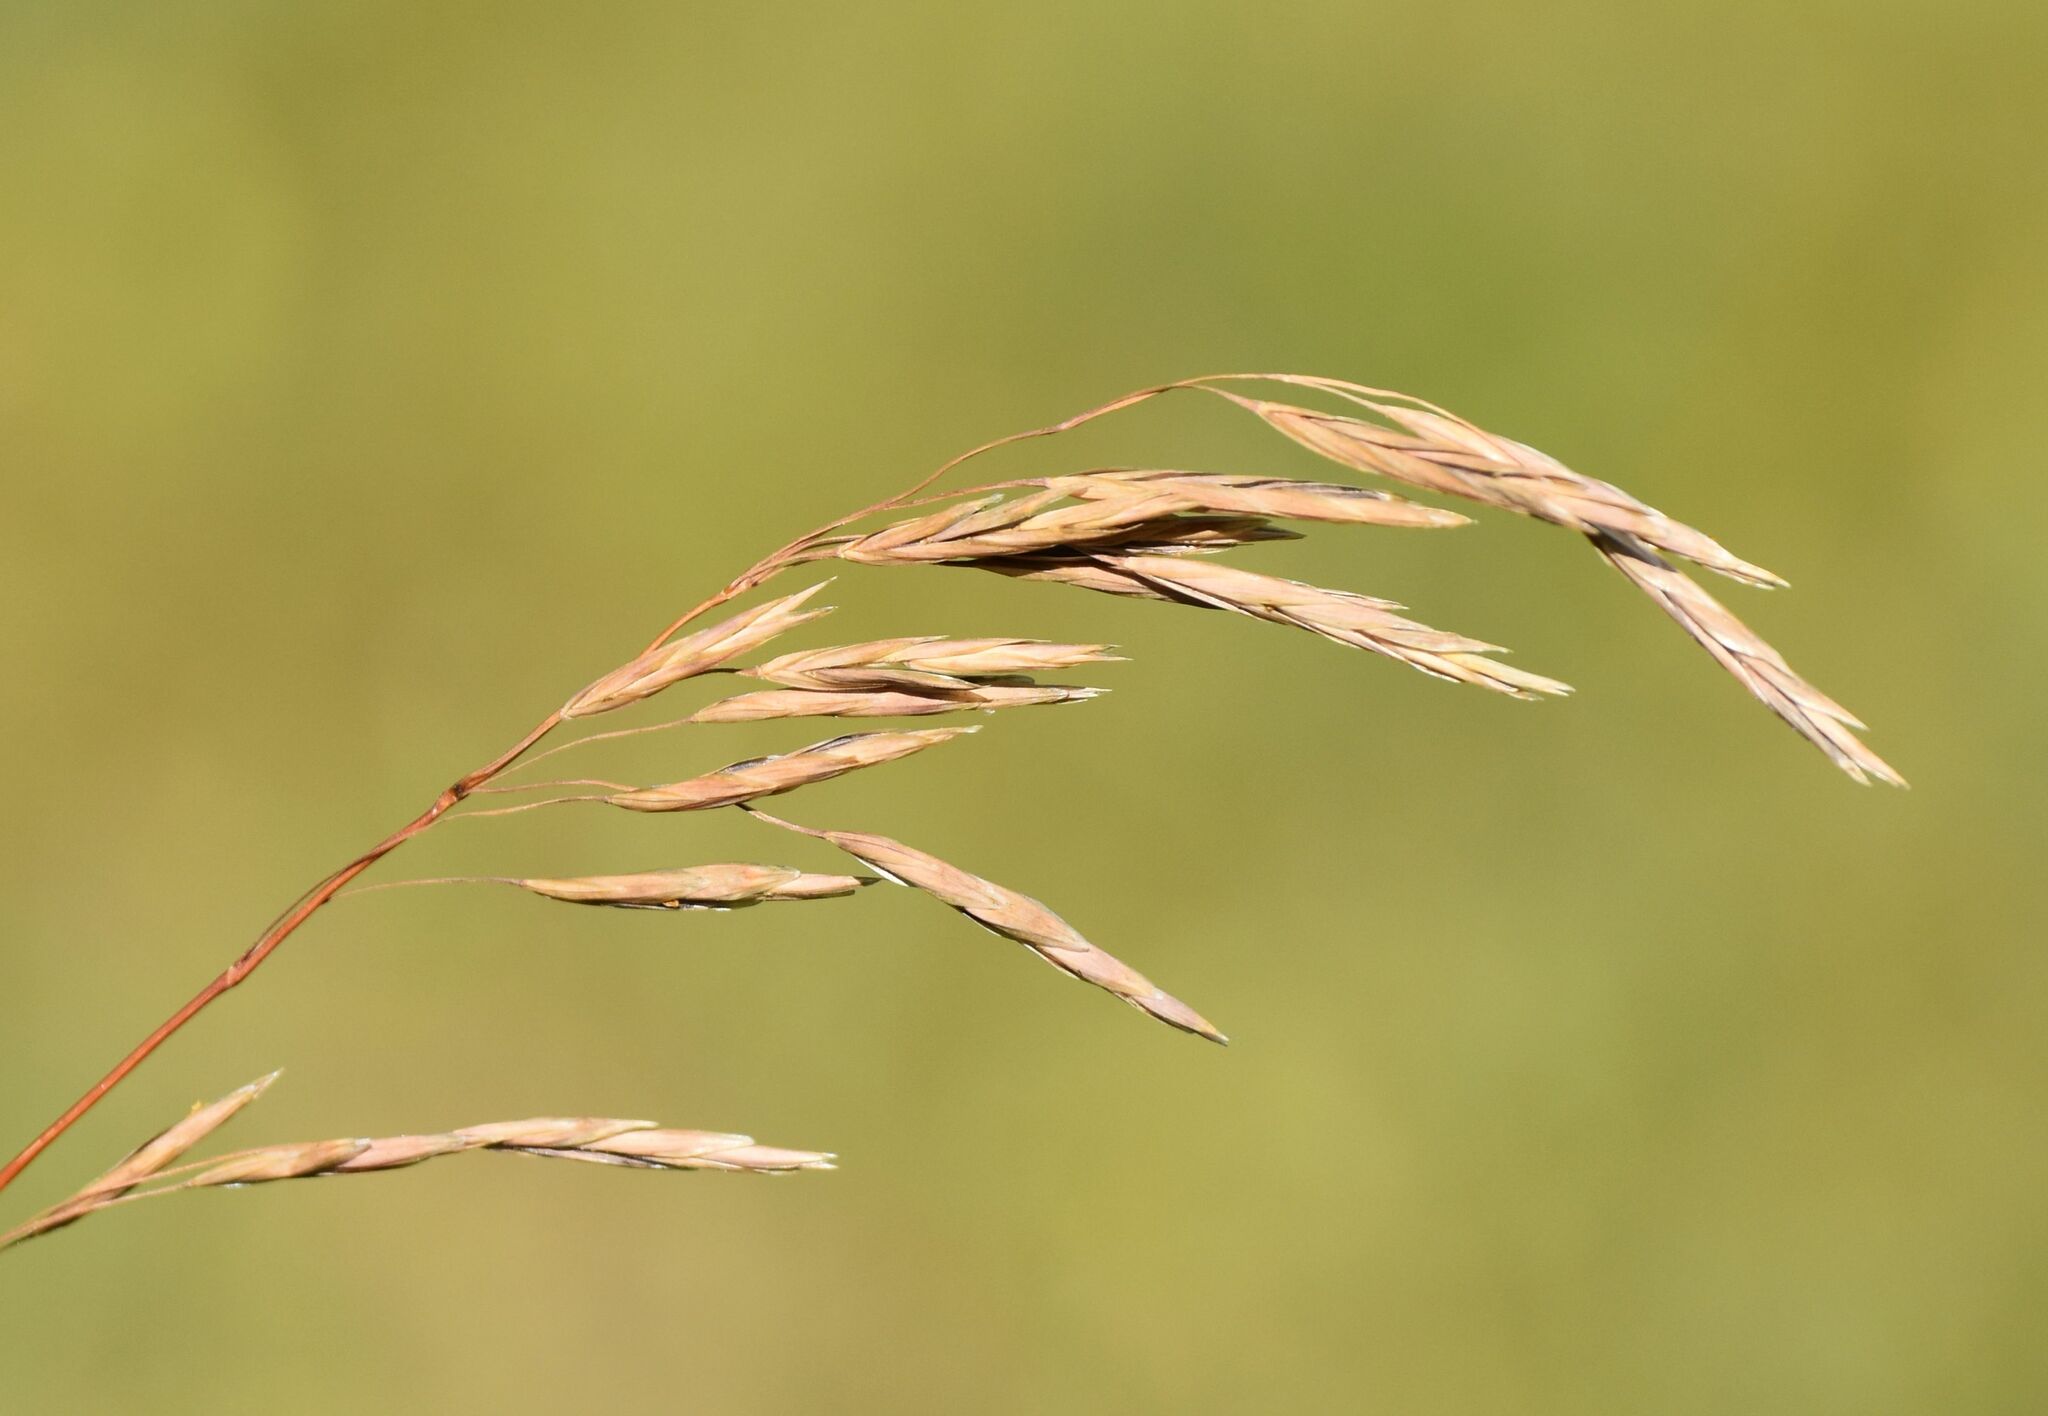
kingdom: Plantae
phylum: Tracheophyta
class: Liliopsida
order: Poales
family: Poaceae
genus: Bromus
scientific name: Bromus inermis
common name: Smooth brome
